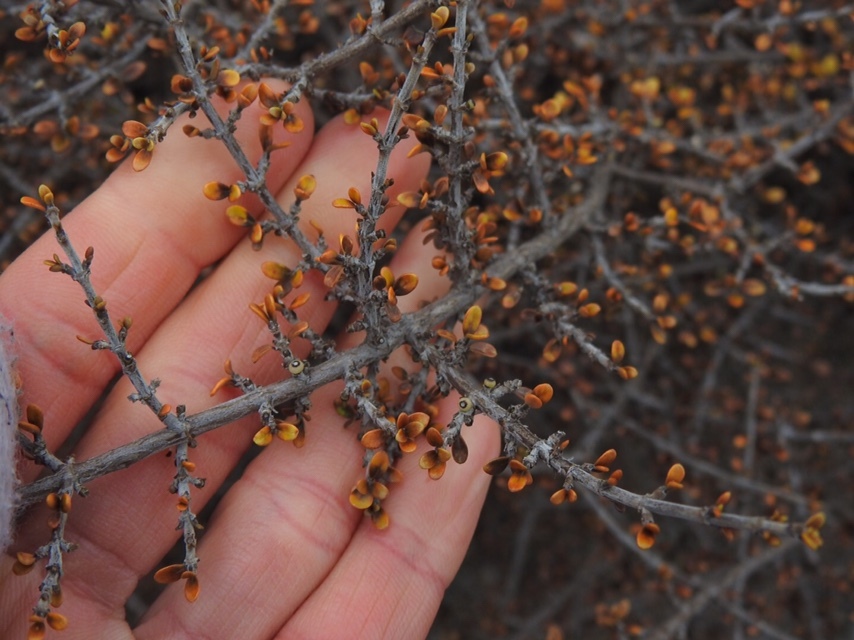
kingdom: Plantae
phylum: Tracheophyta
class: Magnoliopsida
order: Gentianales
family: Rubiaceae
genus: Coprosma
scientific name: Coprosma dumosa
